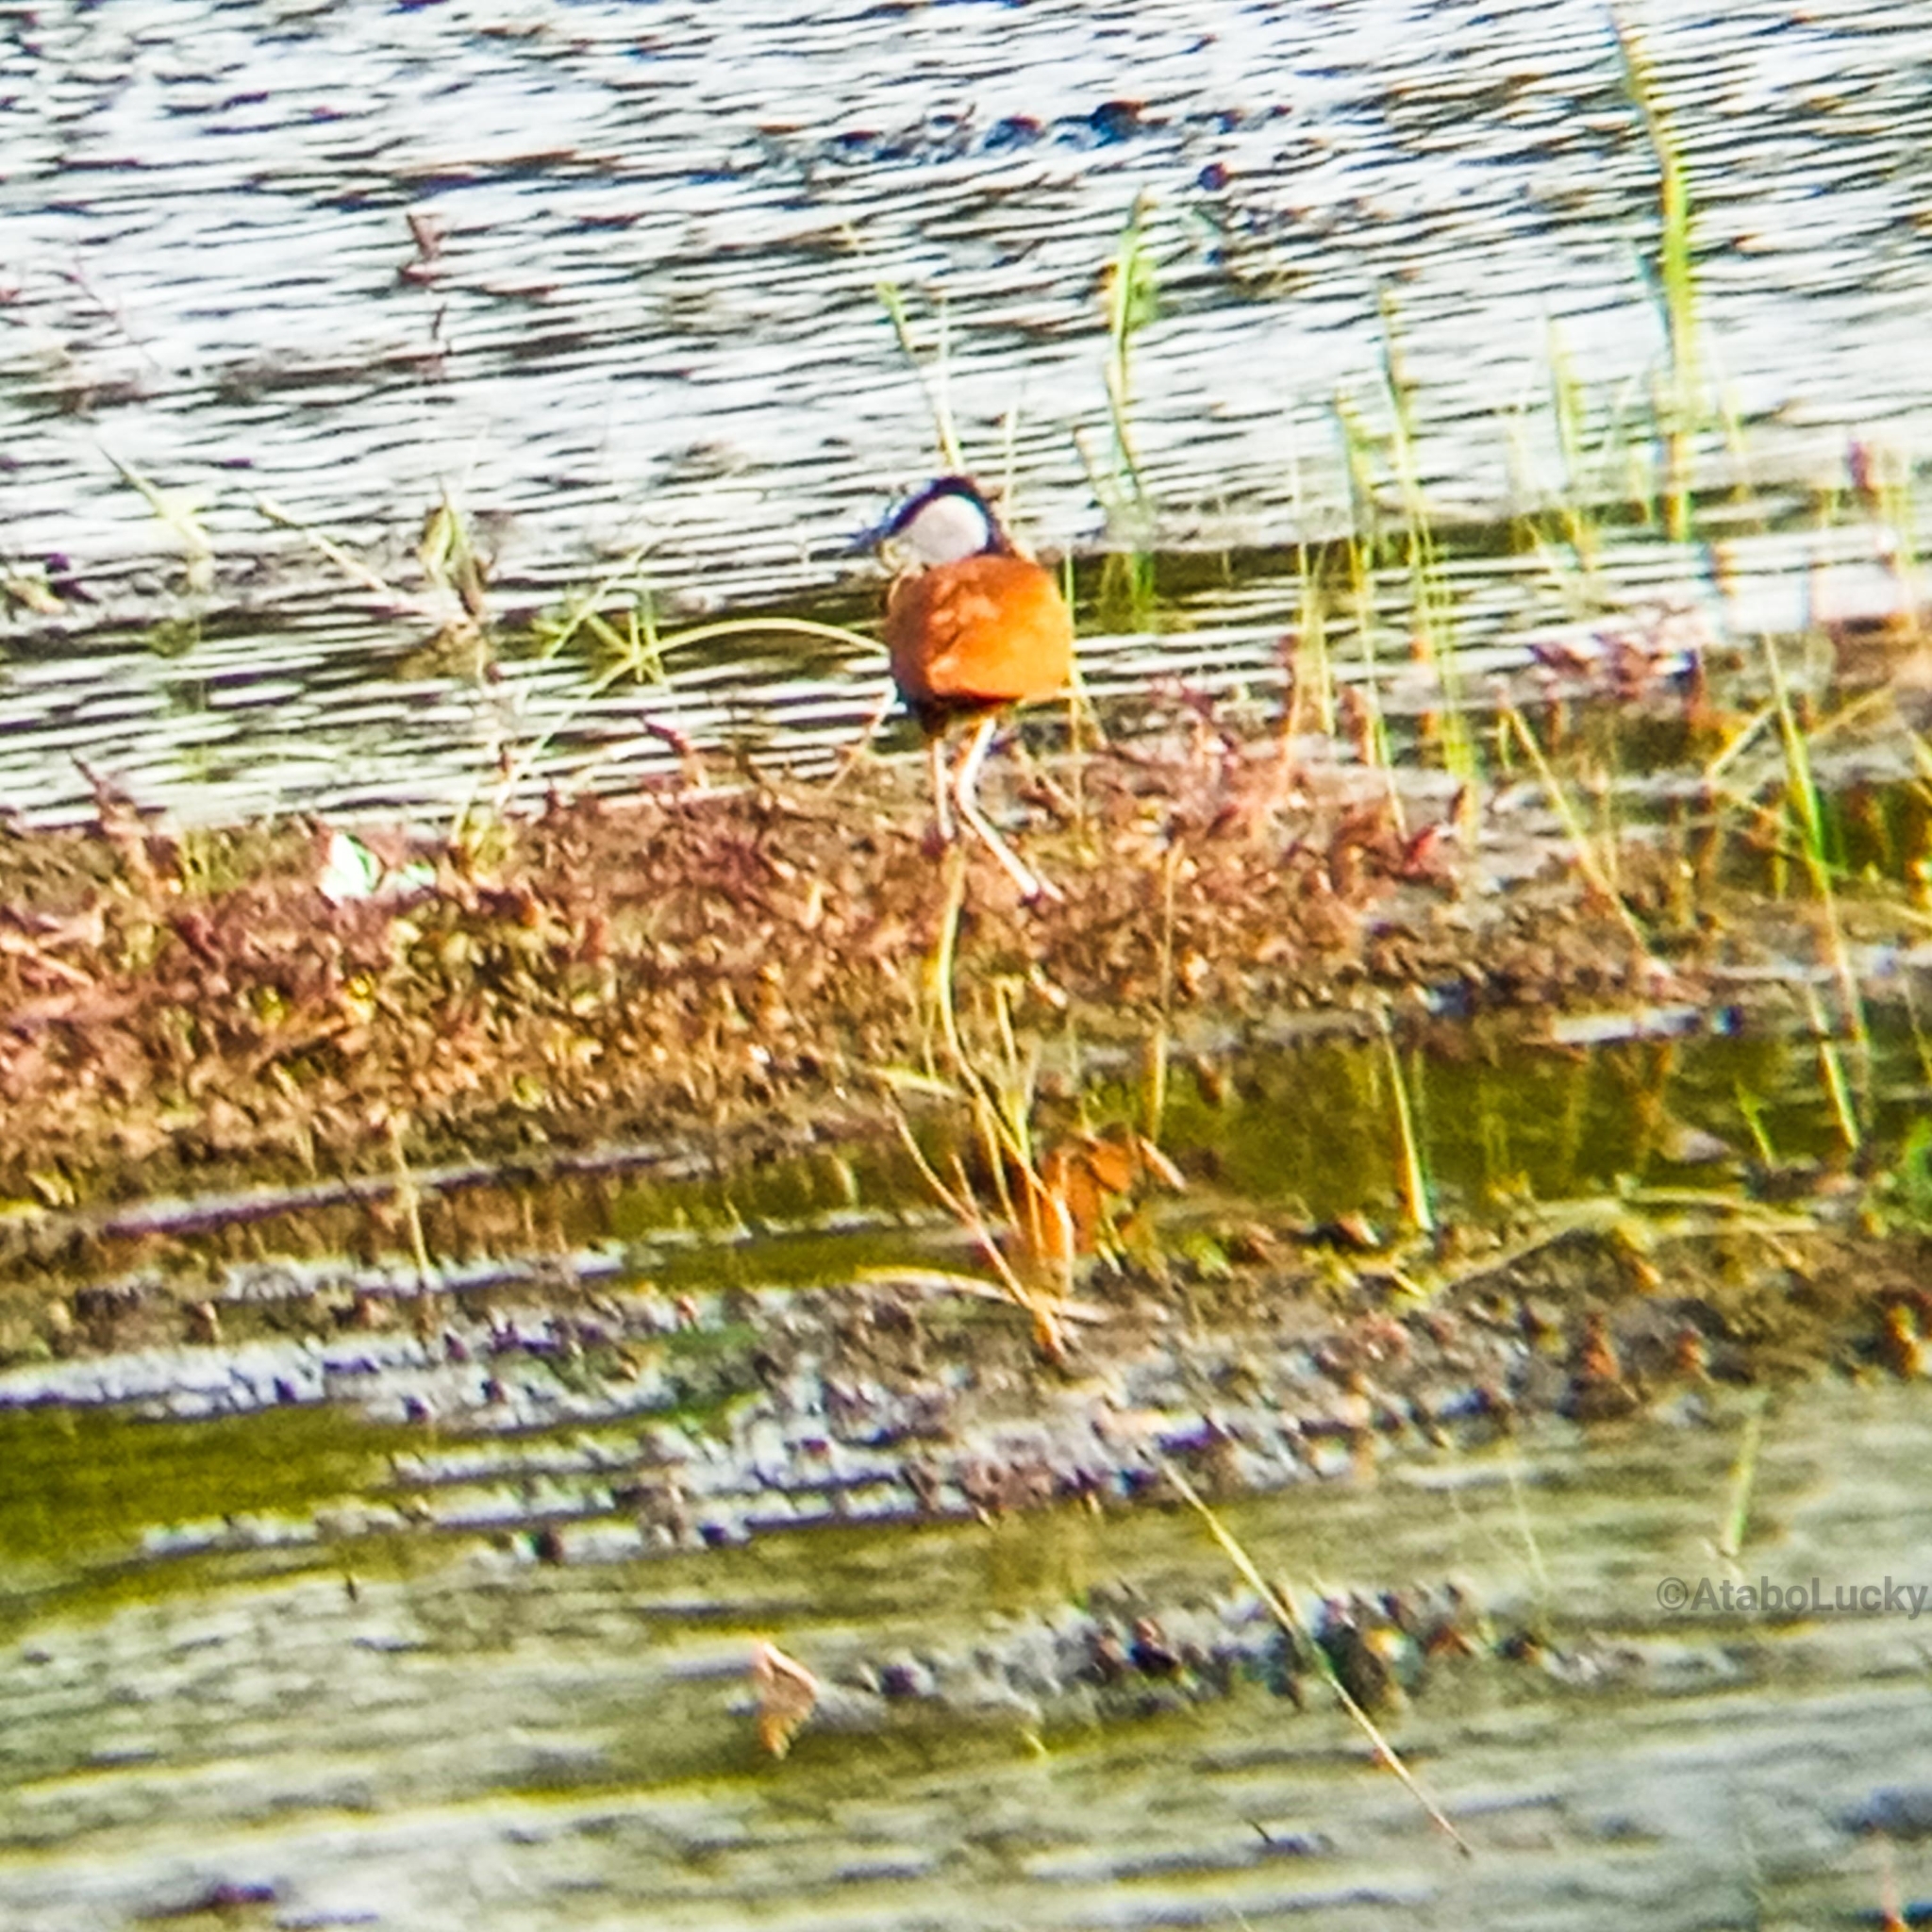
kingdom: Animalia
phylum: Chordata
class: Aves
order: Charadriiformes
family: Jacanidae
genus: Actophilornis
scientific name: Actophilornis africanus
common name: African jacana
